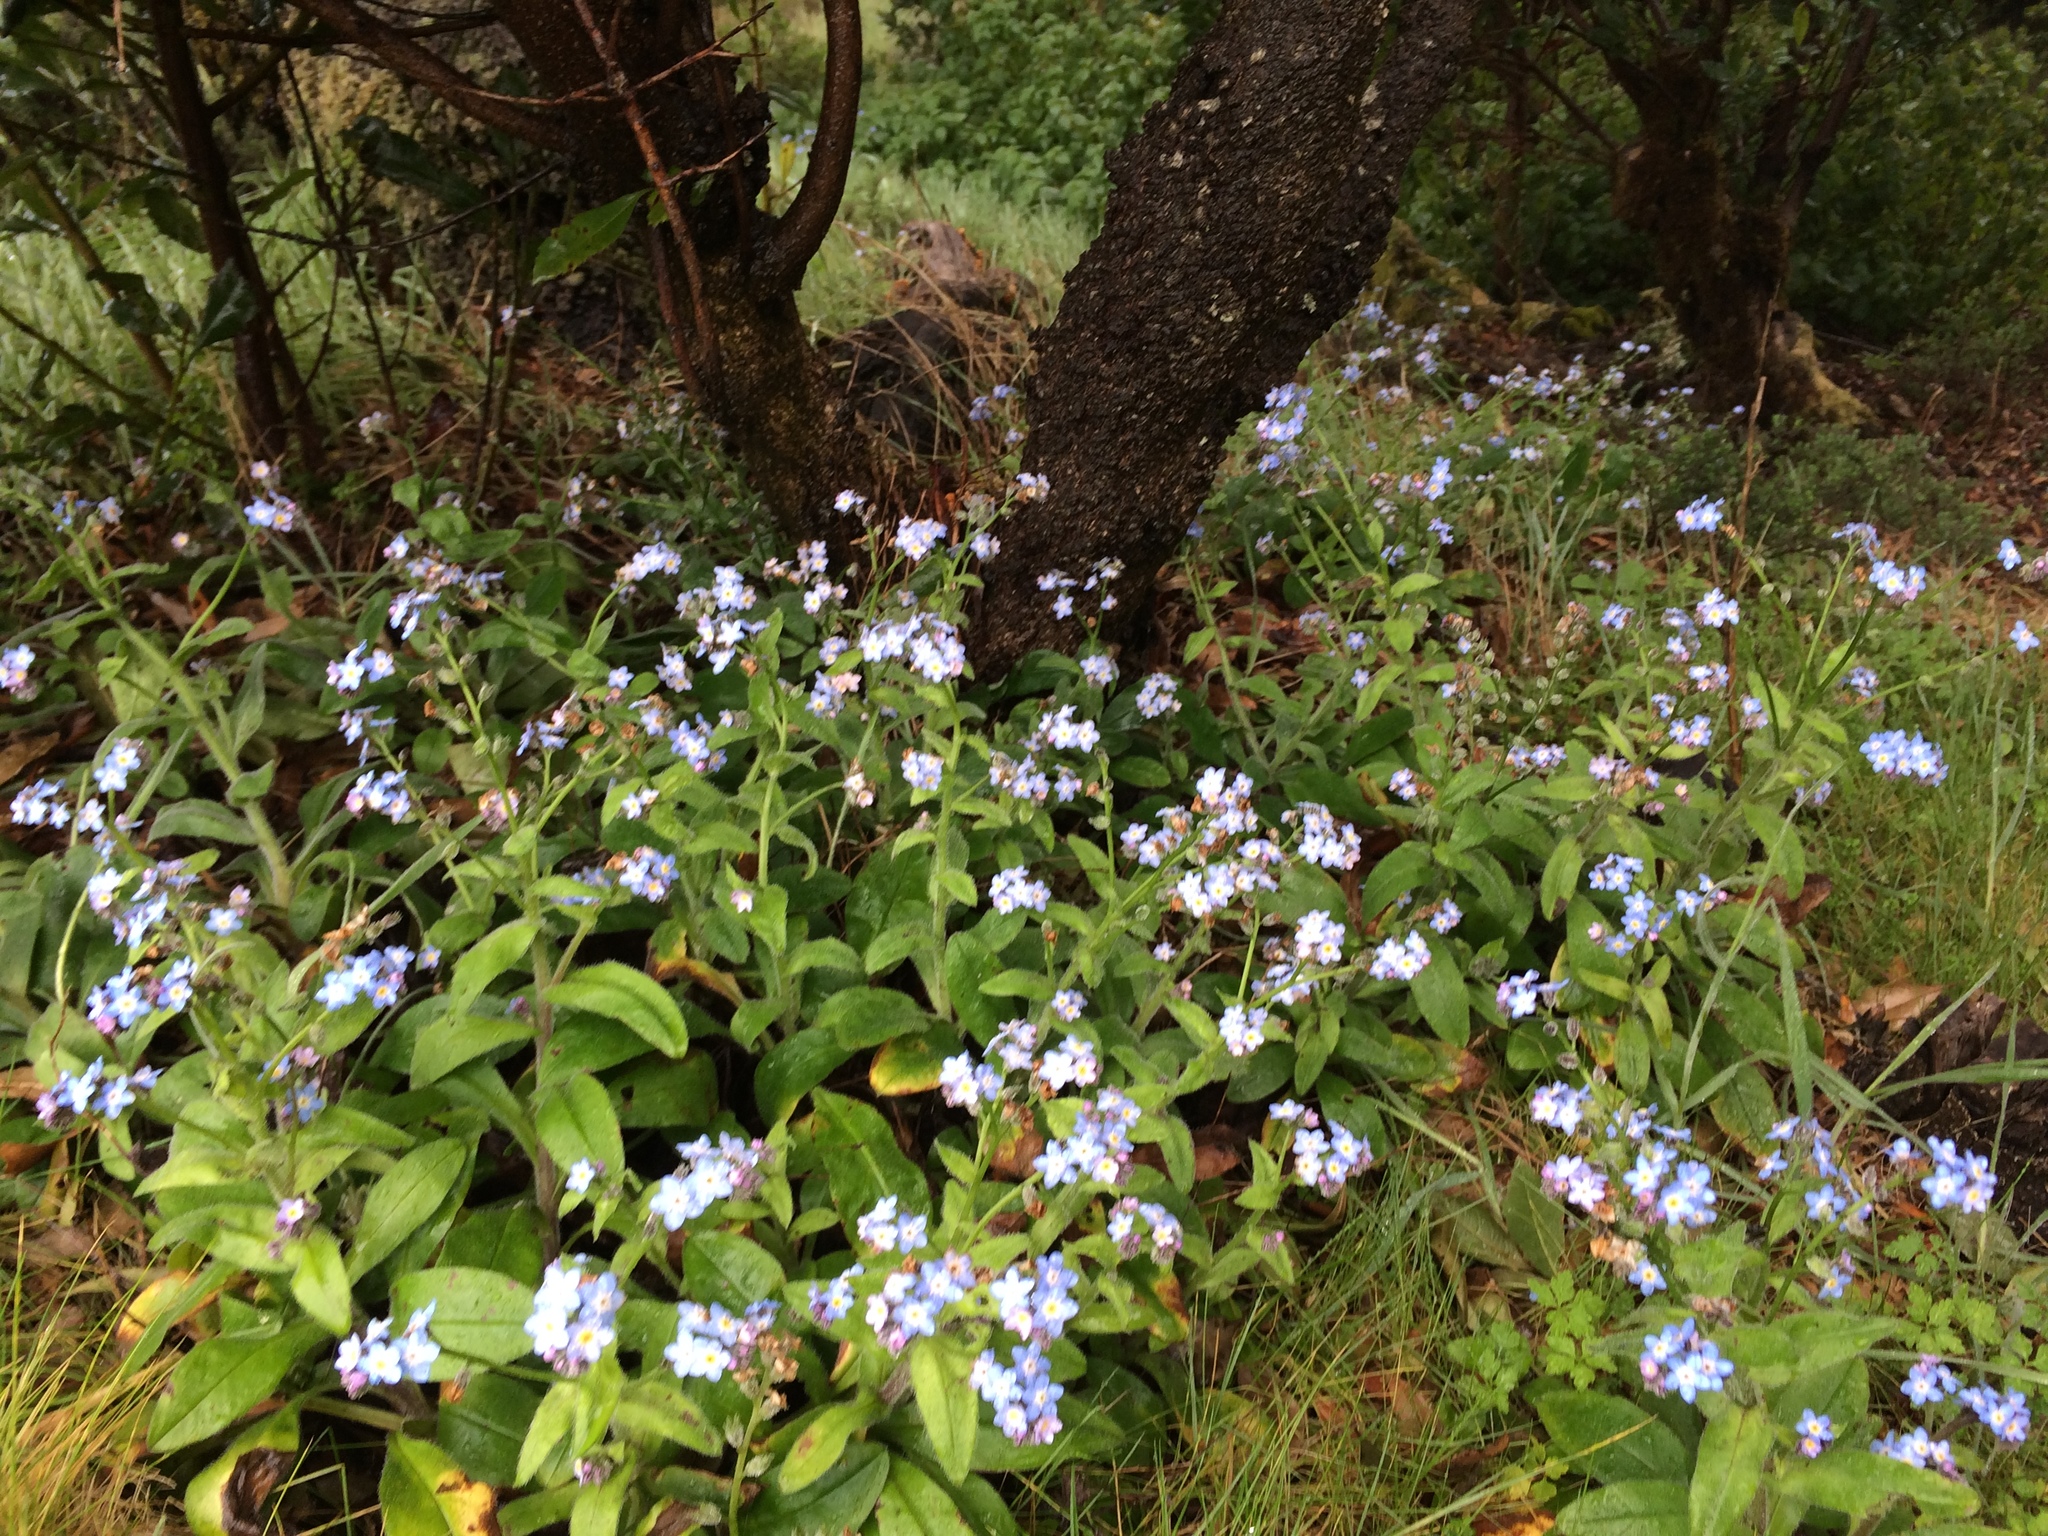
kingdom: Plantae
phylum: Tracheophyta
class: Magnoliopsida
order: Boraginales
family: Boraginaceae
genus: Myosotis
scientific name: Myosotis latifolia
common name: Broadleaf forget-me-not
